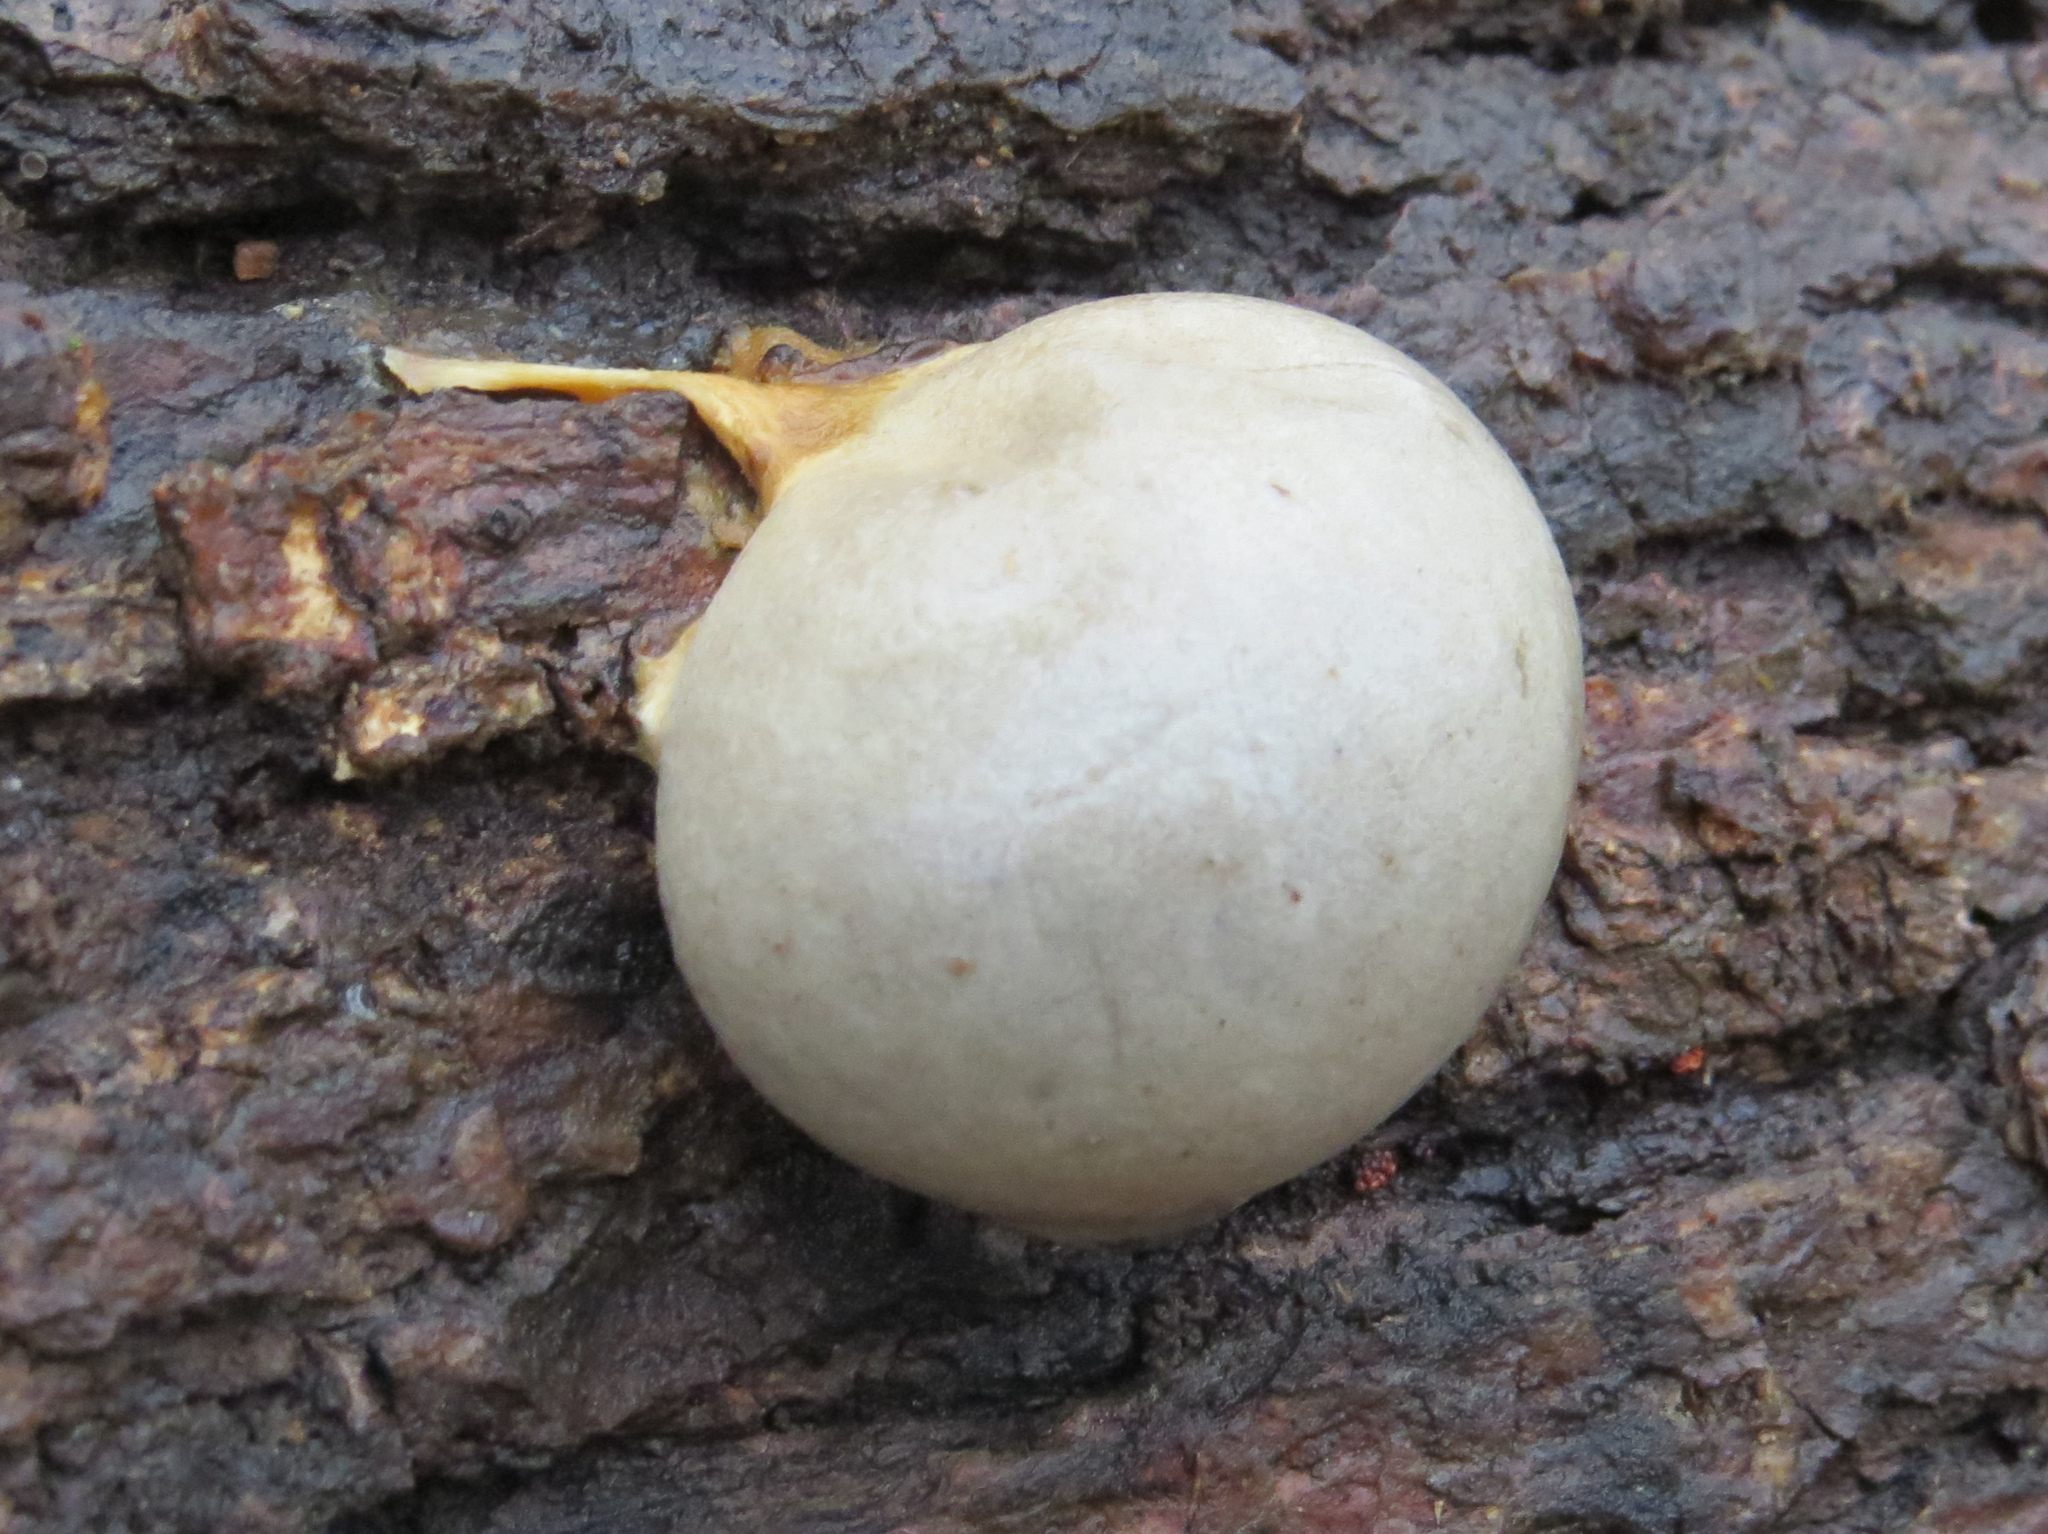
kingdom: Protozoa
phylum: Mycetozoa
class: Myxomycetes
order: Cribrariales
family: Tubiferaceae
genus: Lycogala
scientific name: Lycogala flavofuscum
